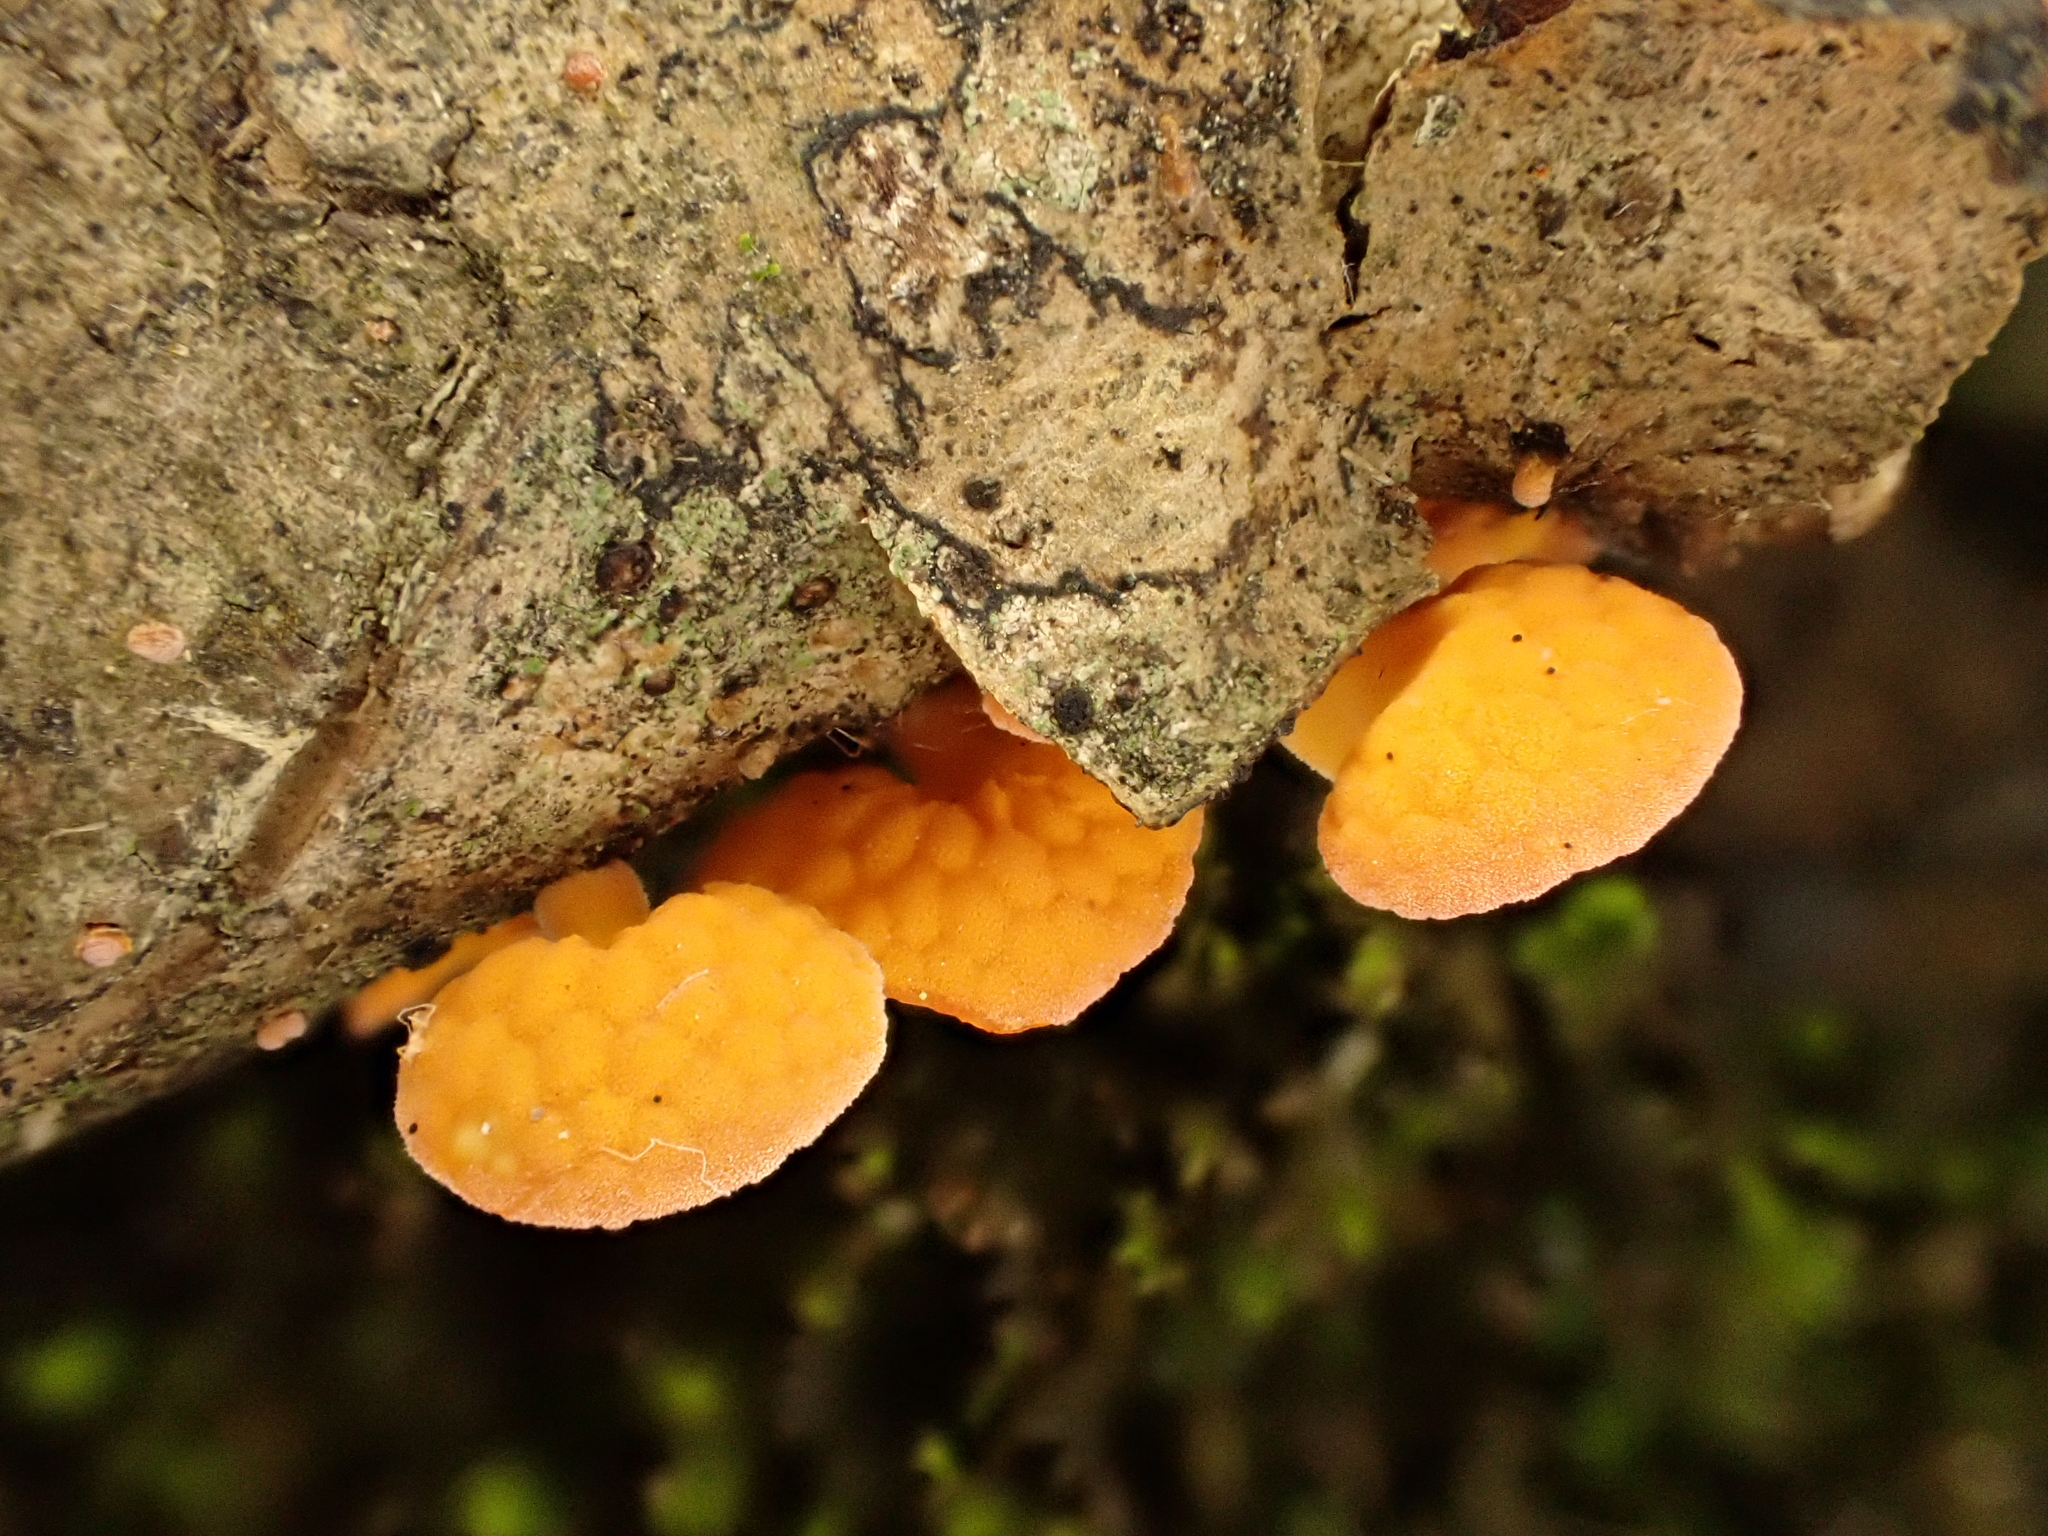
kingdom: Fungi
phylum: Basidiomycota
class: Agaricomycetes
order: Agaricales
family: Mycenaceae
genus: Favolaschia
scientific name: Favolaschia claudopus
